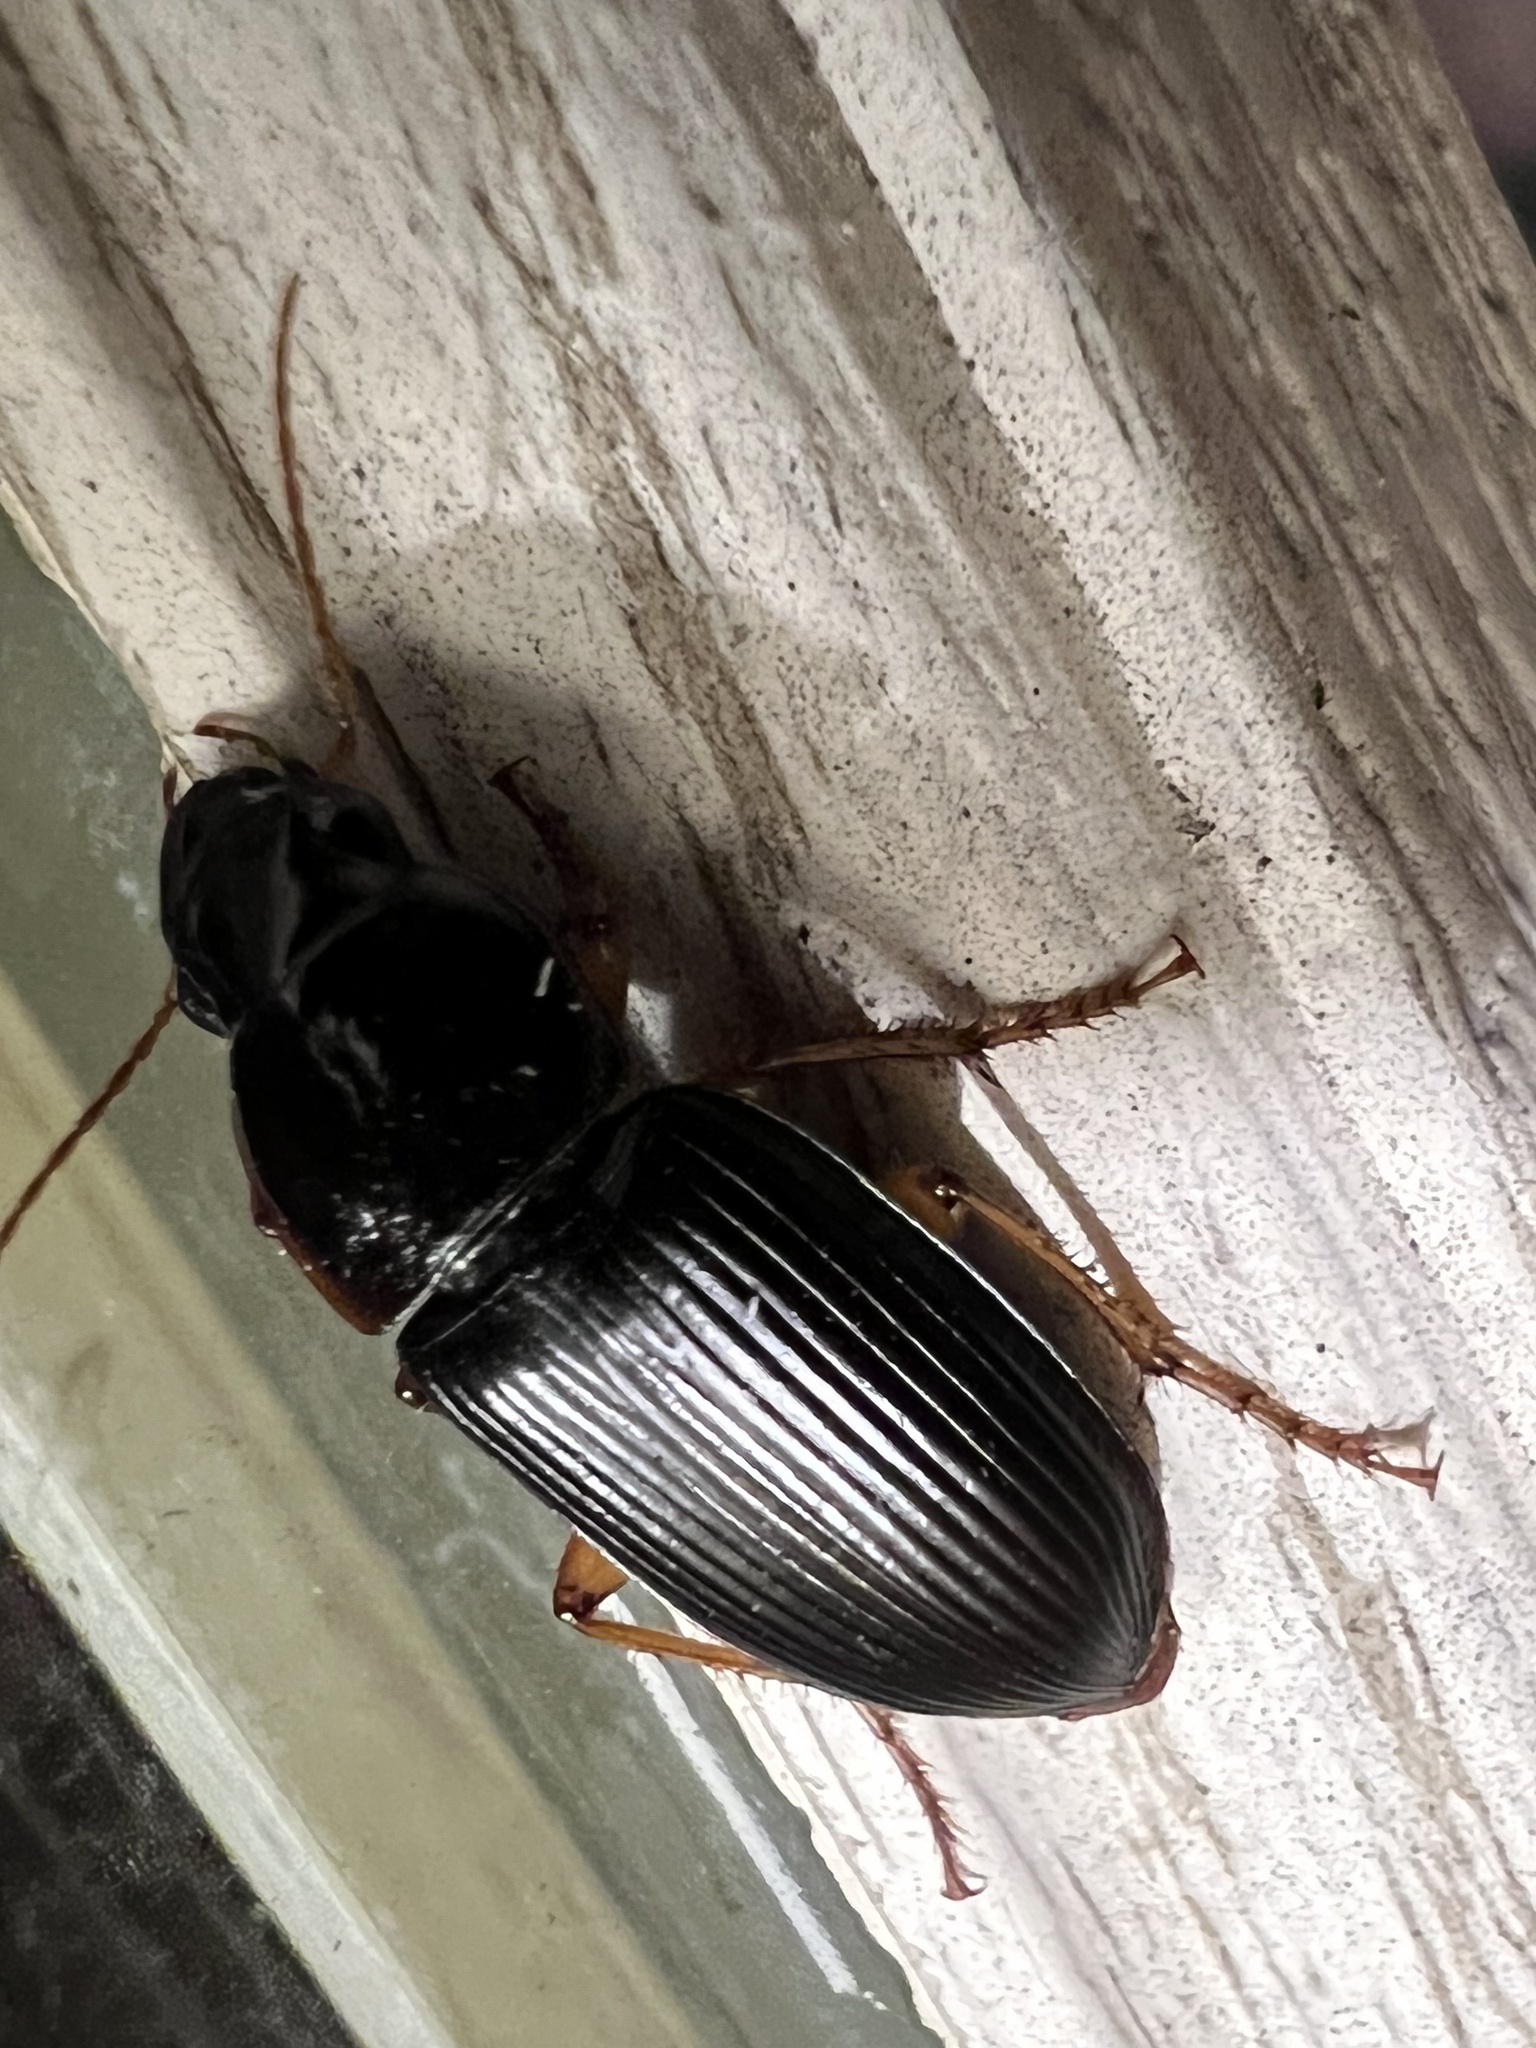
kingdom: Animalia
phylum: Arthropoda
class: Insecta
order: Coleoptera
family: Carabidae
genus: Harpalus
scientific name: Harpalus pensylvanicus
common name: Pennsylvania dingy ground beetle
